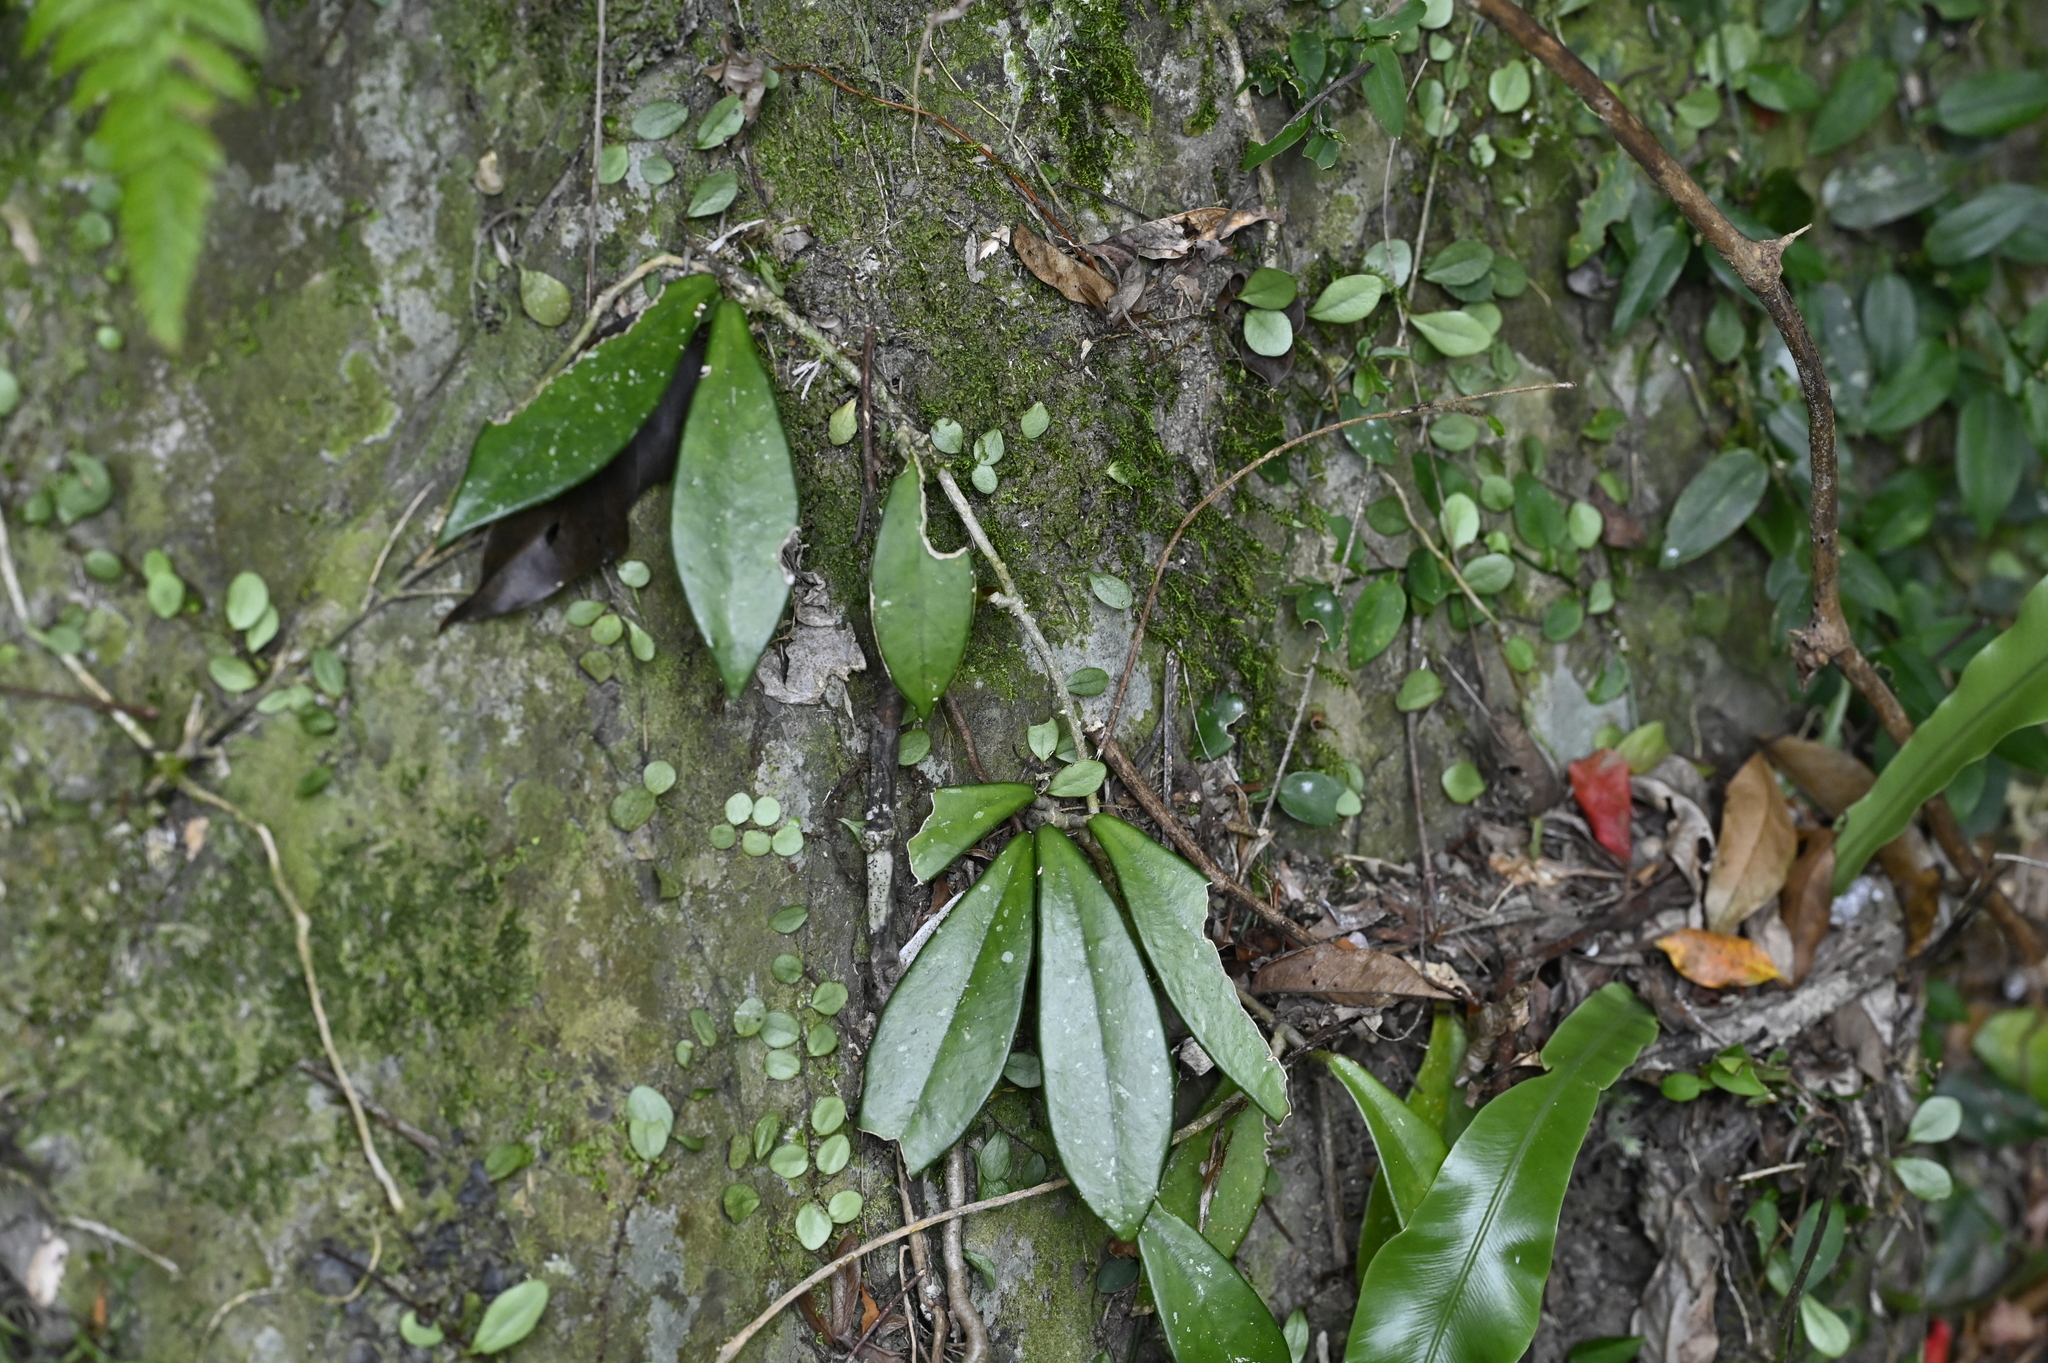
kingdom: Plantae
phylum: Tracheophyta
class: Magnoliopsida
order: Gentianales
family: Apocynaceae
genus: Hoya
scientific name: Hoya carnosa
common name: Honeyplant
